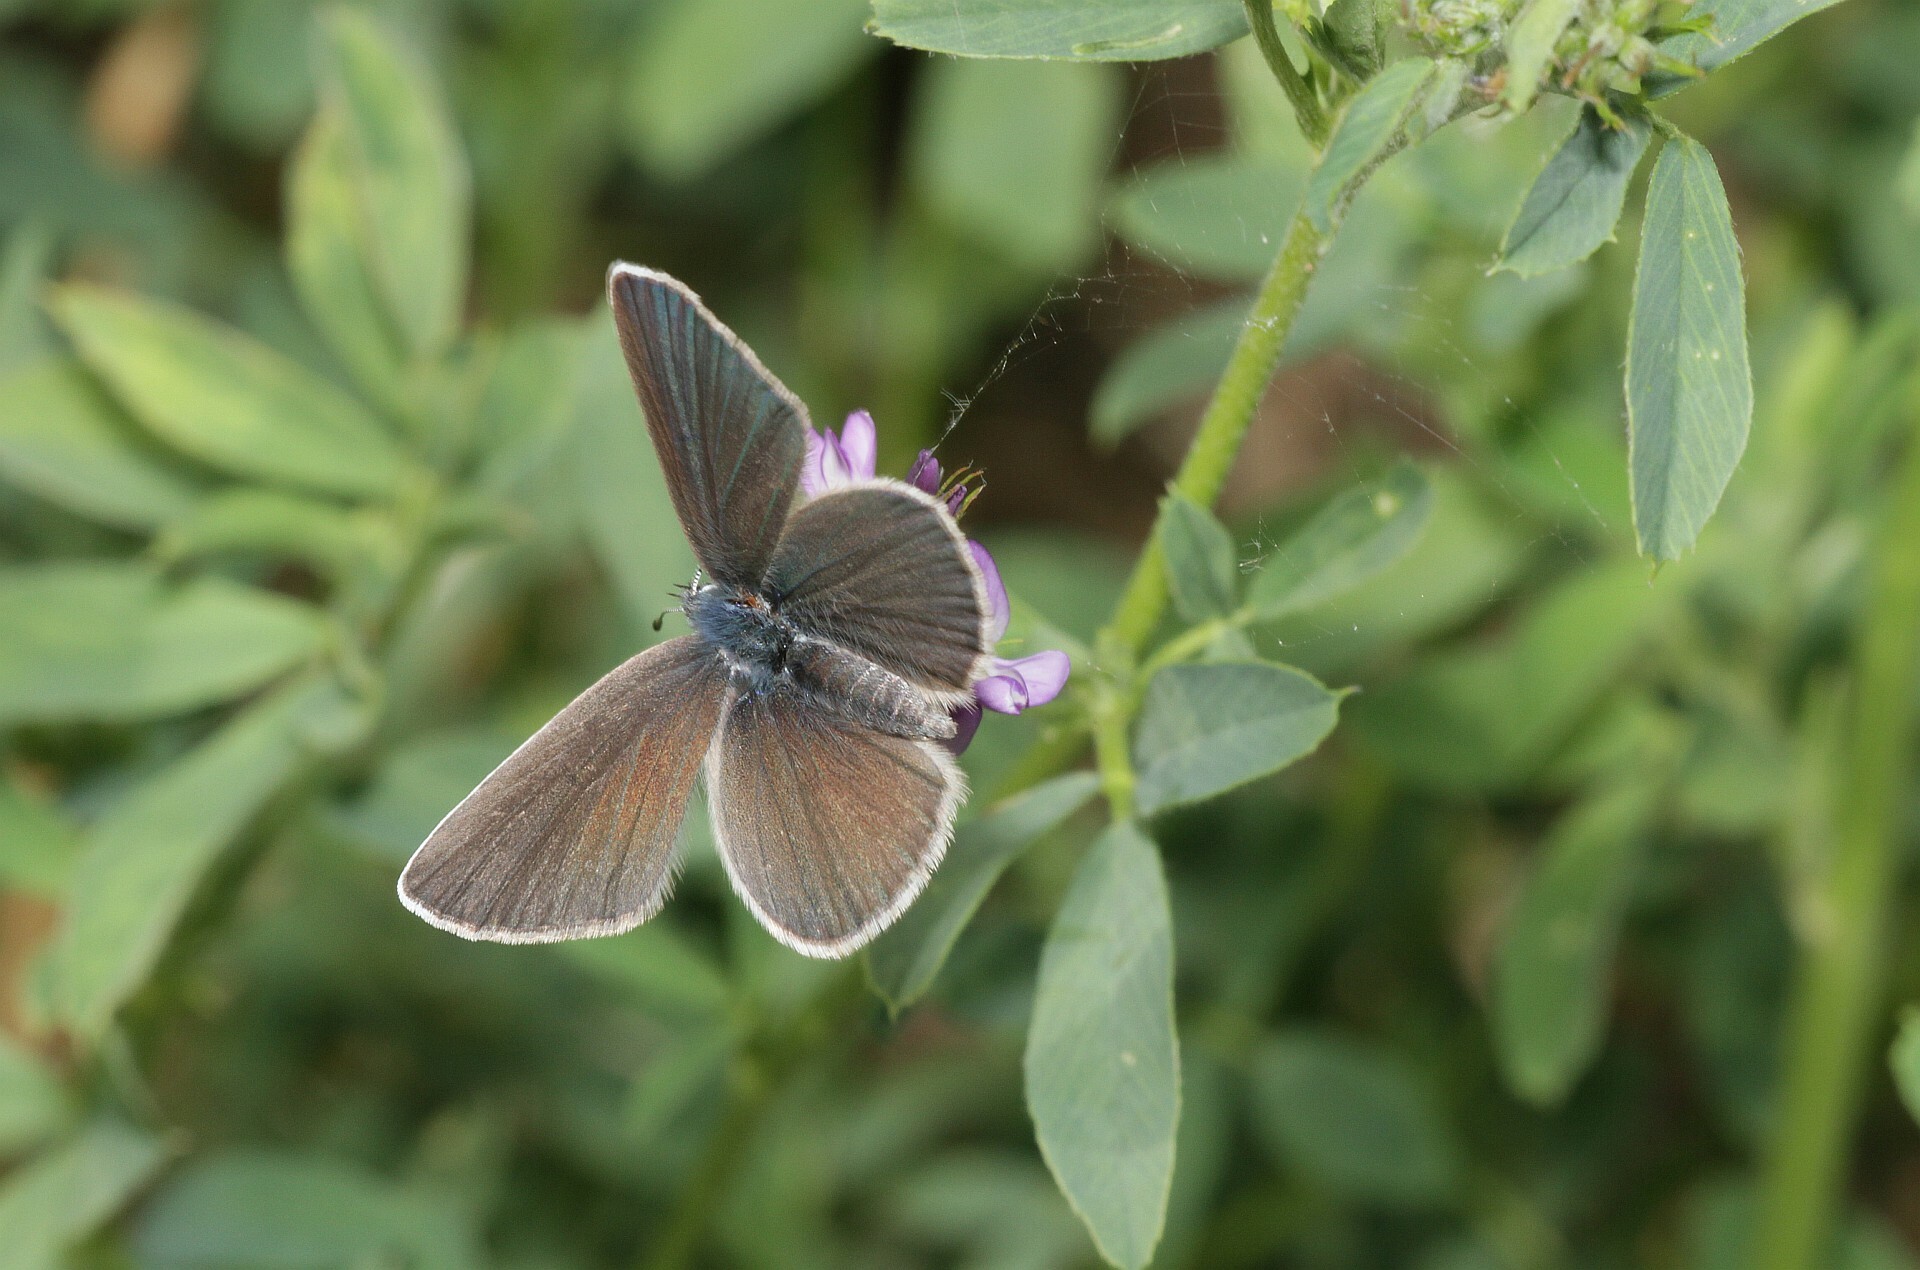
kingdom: Animalia
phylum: Arthropoda
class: Insecta
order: Lepidoptera
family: Lycaenidae
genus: Cyaniris
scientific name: Cyaniris semiargus
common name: Mazarine blue
